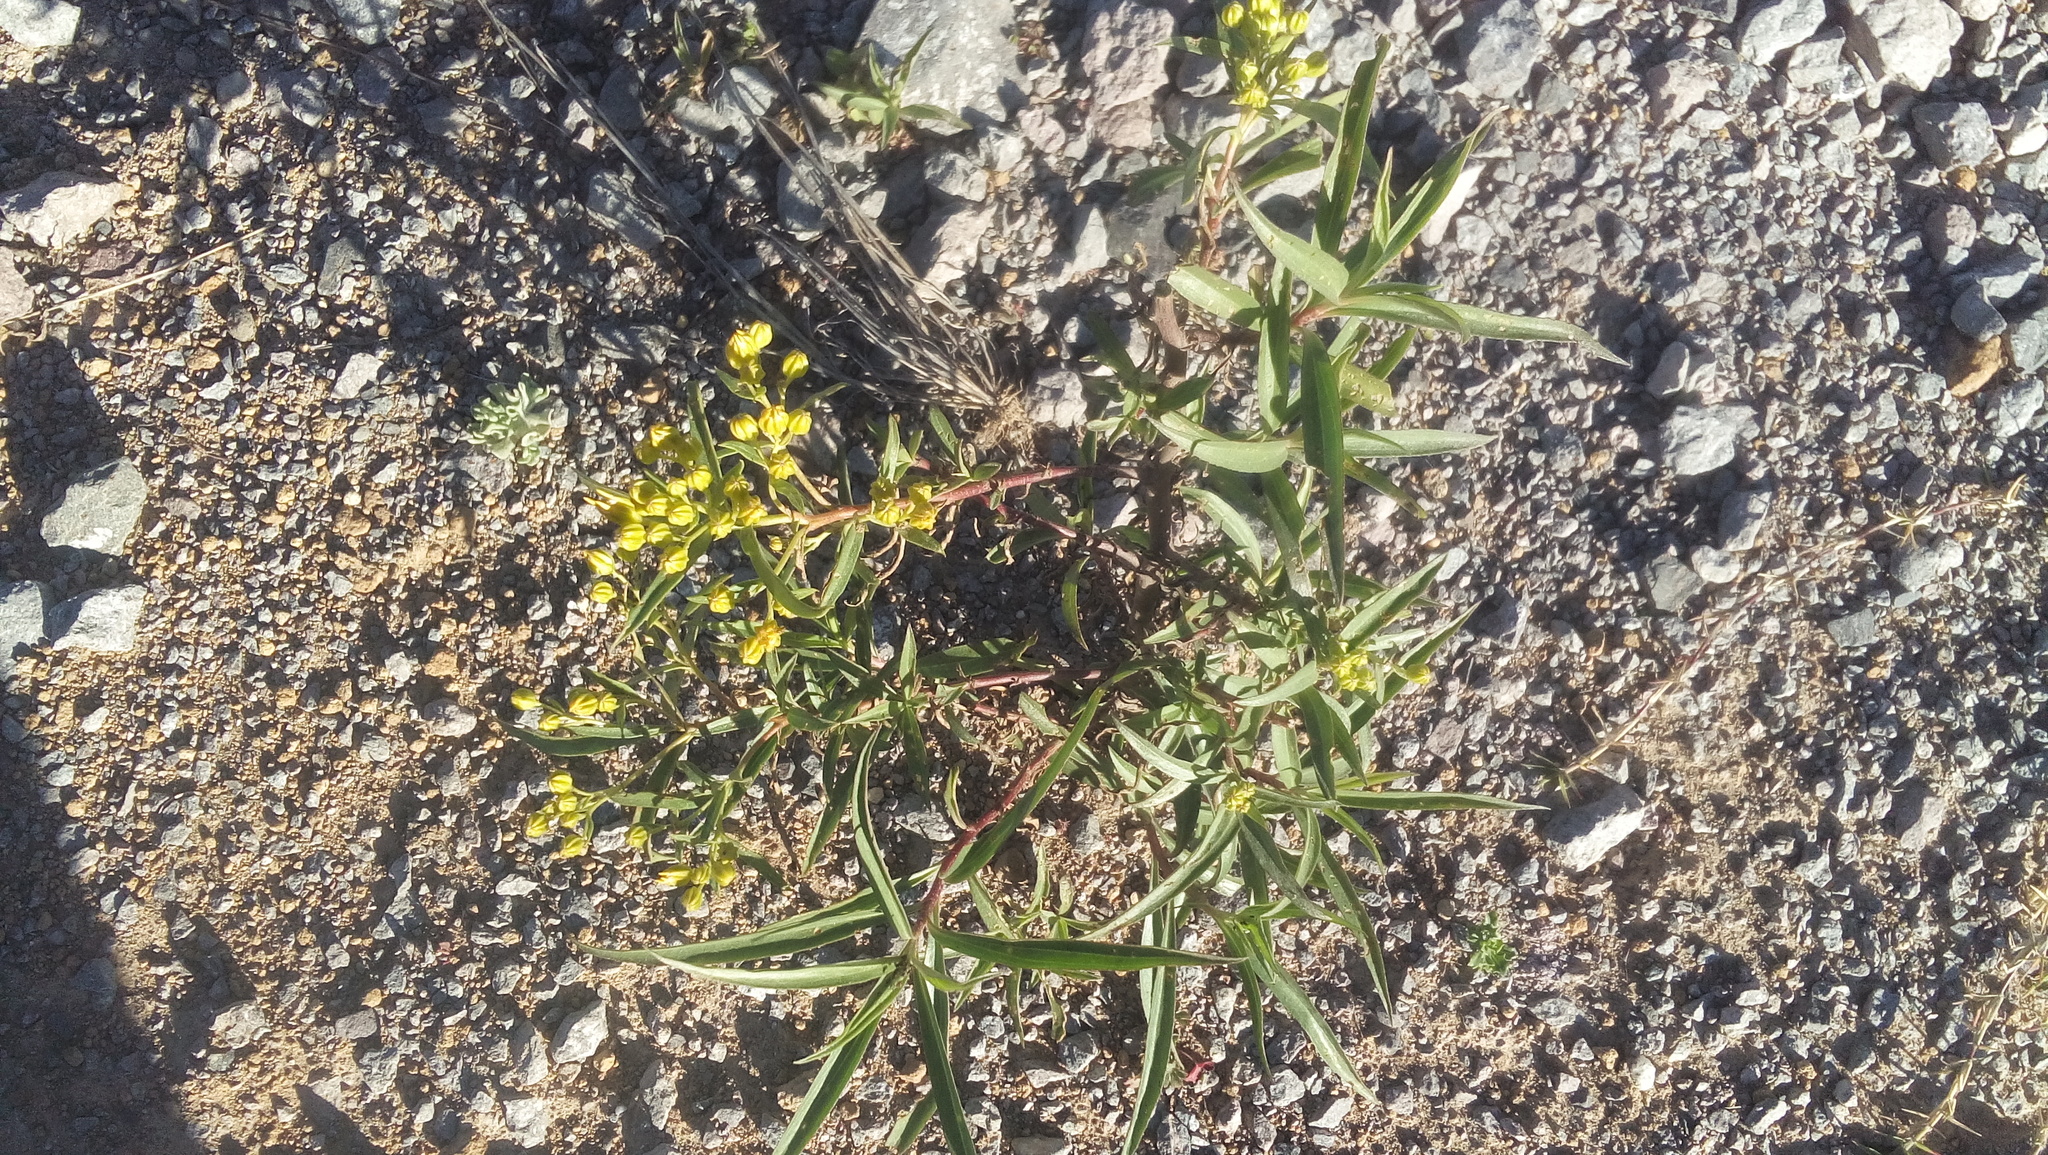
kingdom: Plantae
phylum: Tracheophyta
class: Magnoliopsida
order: Asterales
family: Asteraceae
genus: Barkleyanthus
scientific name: Barkleyanthus salicifolius
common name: Willow ragwort
